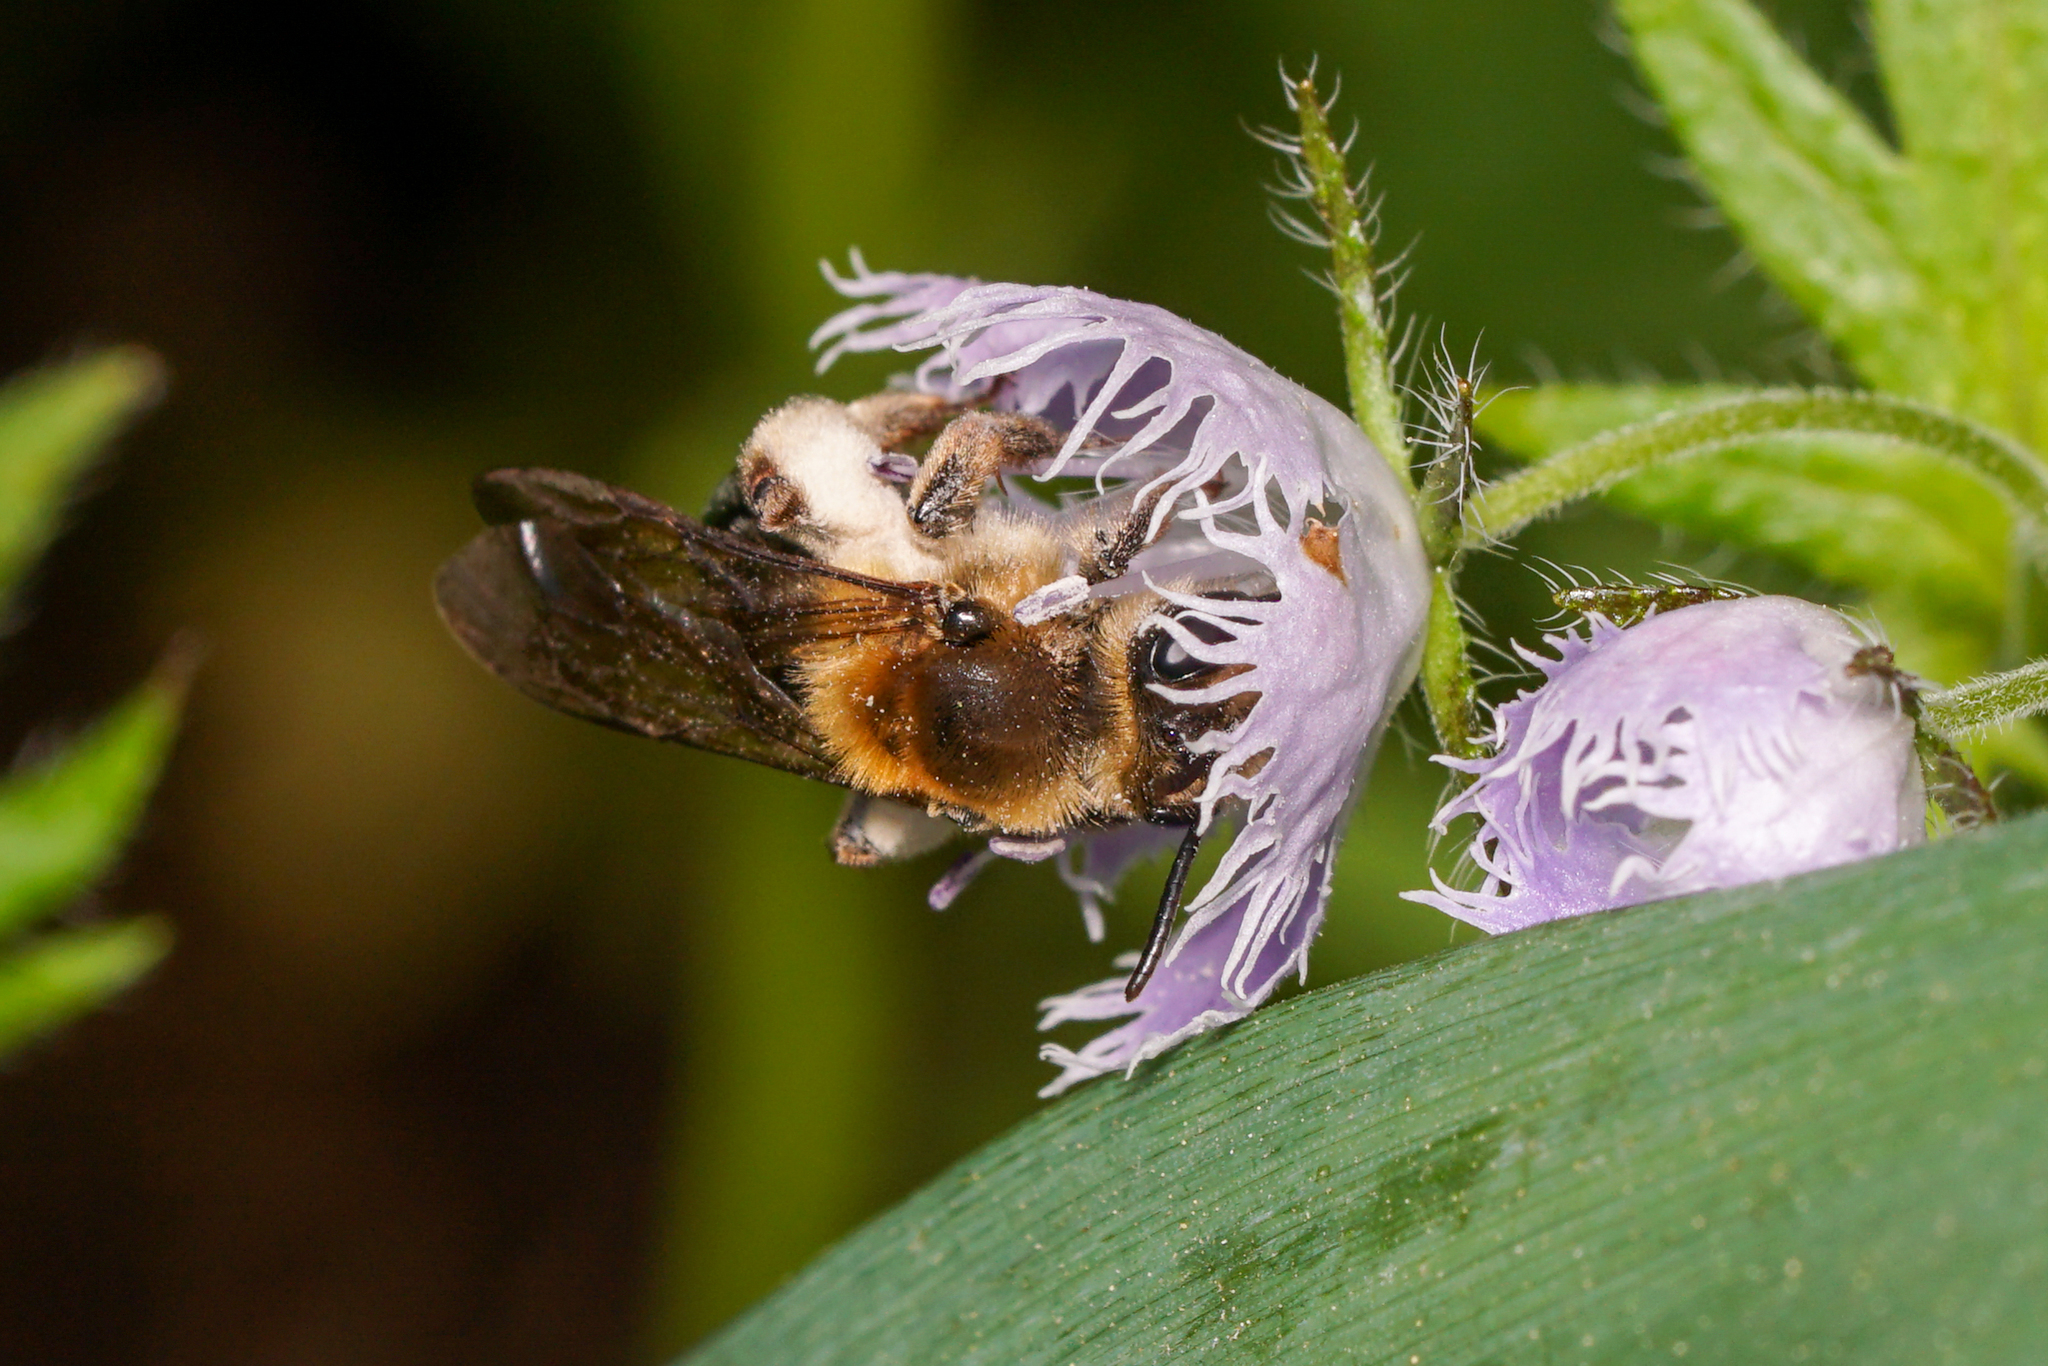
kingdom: Animalia
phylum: Arthropoda
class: Insecta
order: Hymenoptera
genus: Melandrena
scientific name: Melandrena
